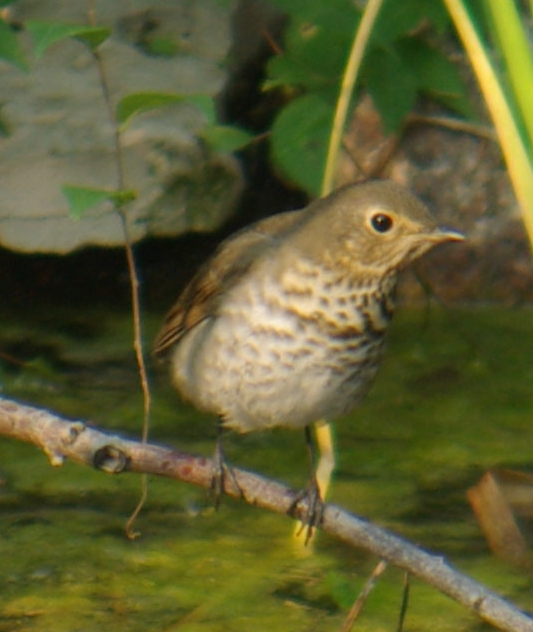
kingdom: Animalia
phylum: Chordata
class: Aves
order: Passeriformes
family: Turdidae
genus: Catharus
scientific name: Catharus ustulatus
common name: Swainson's thrush
